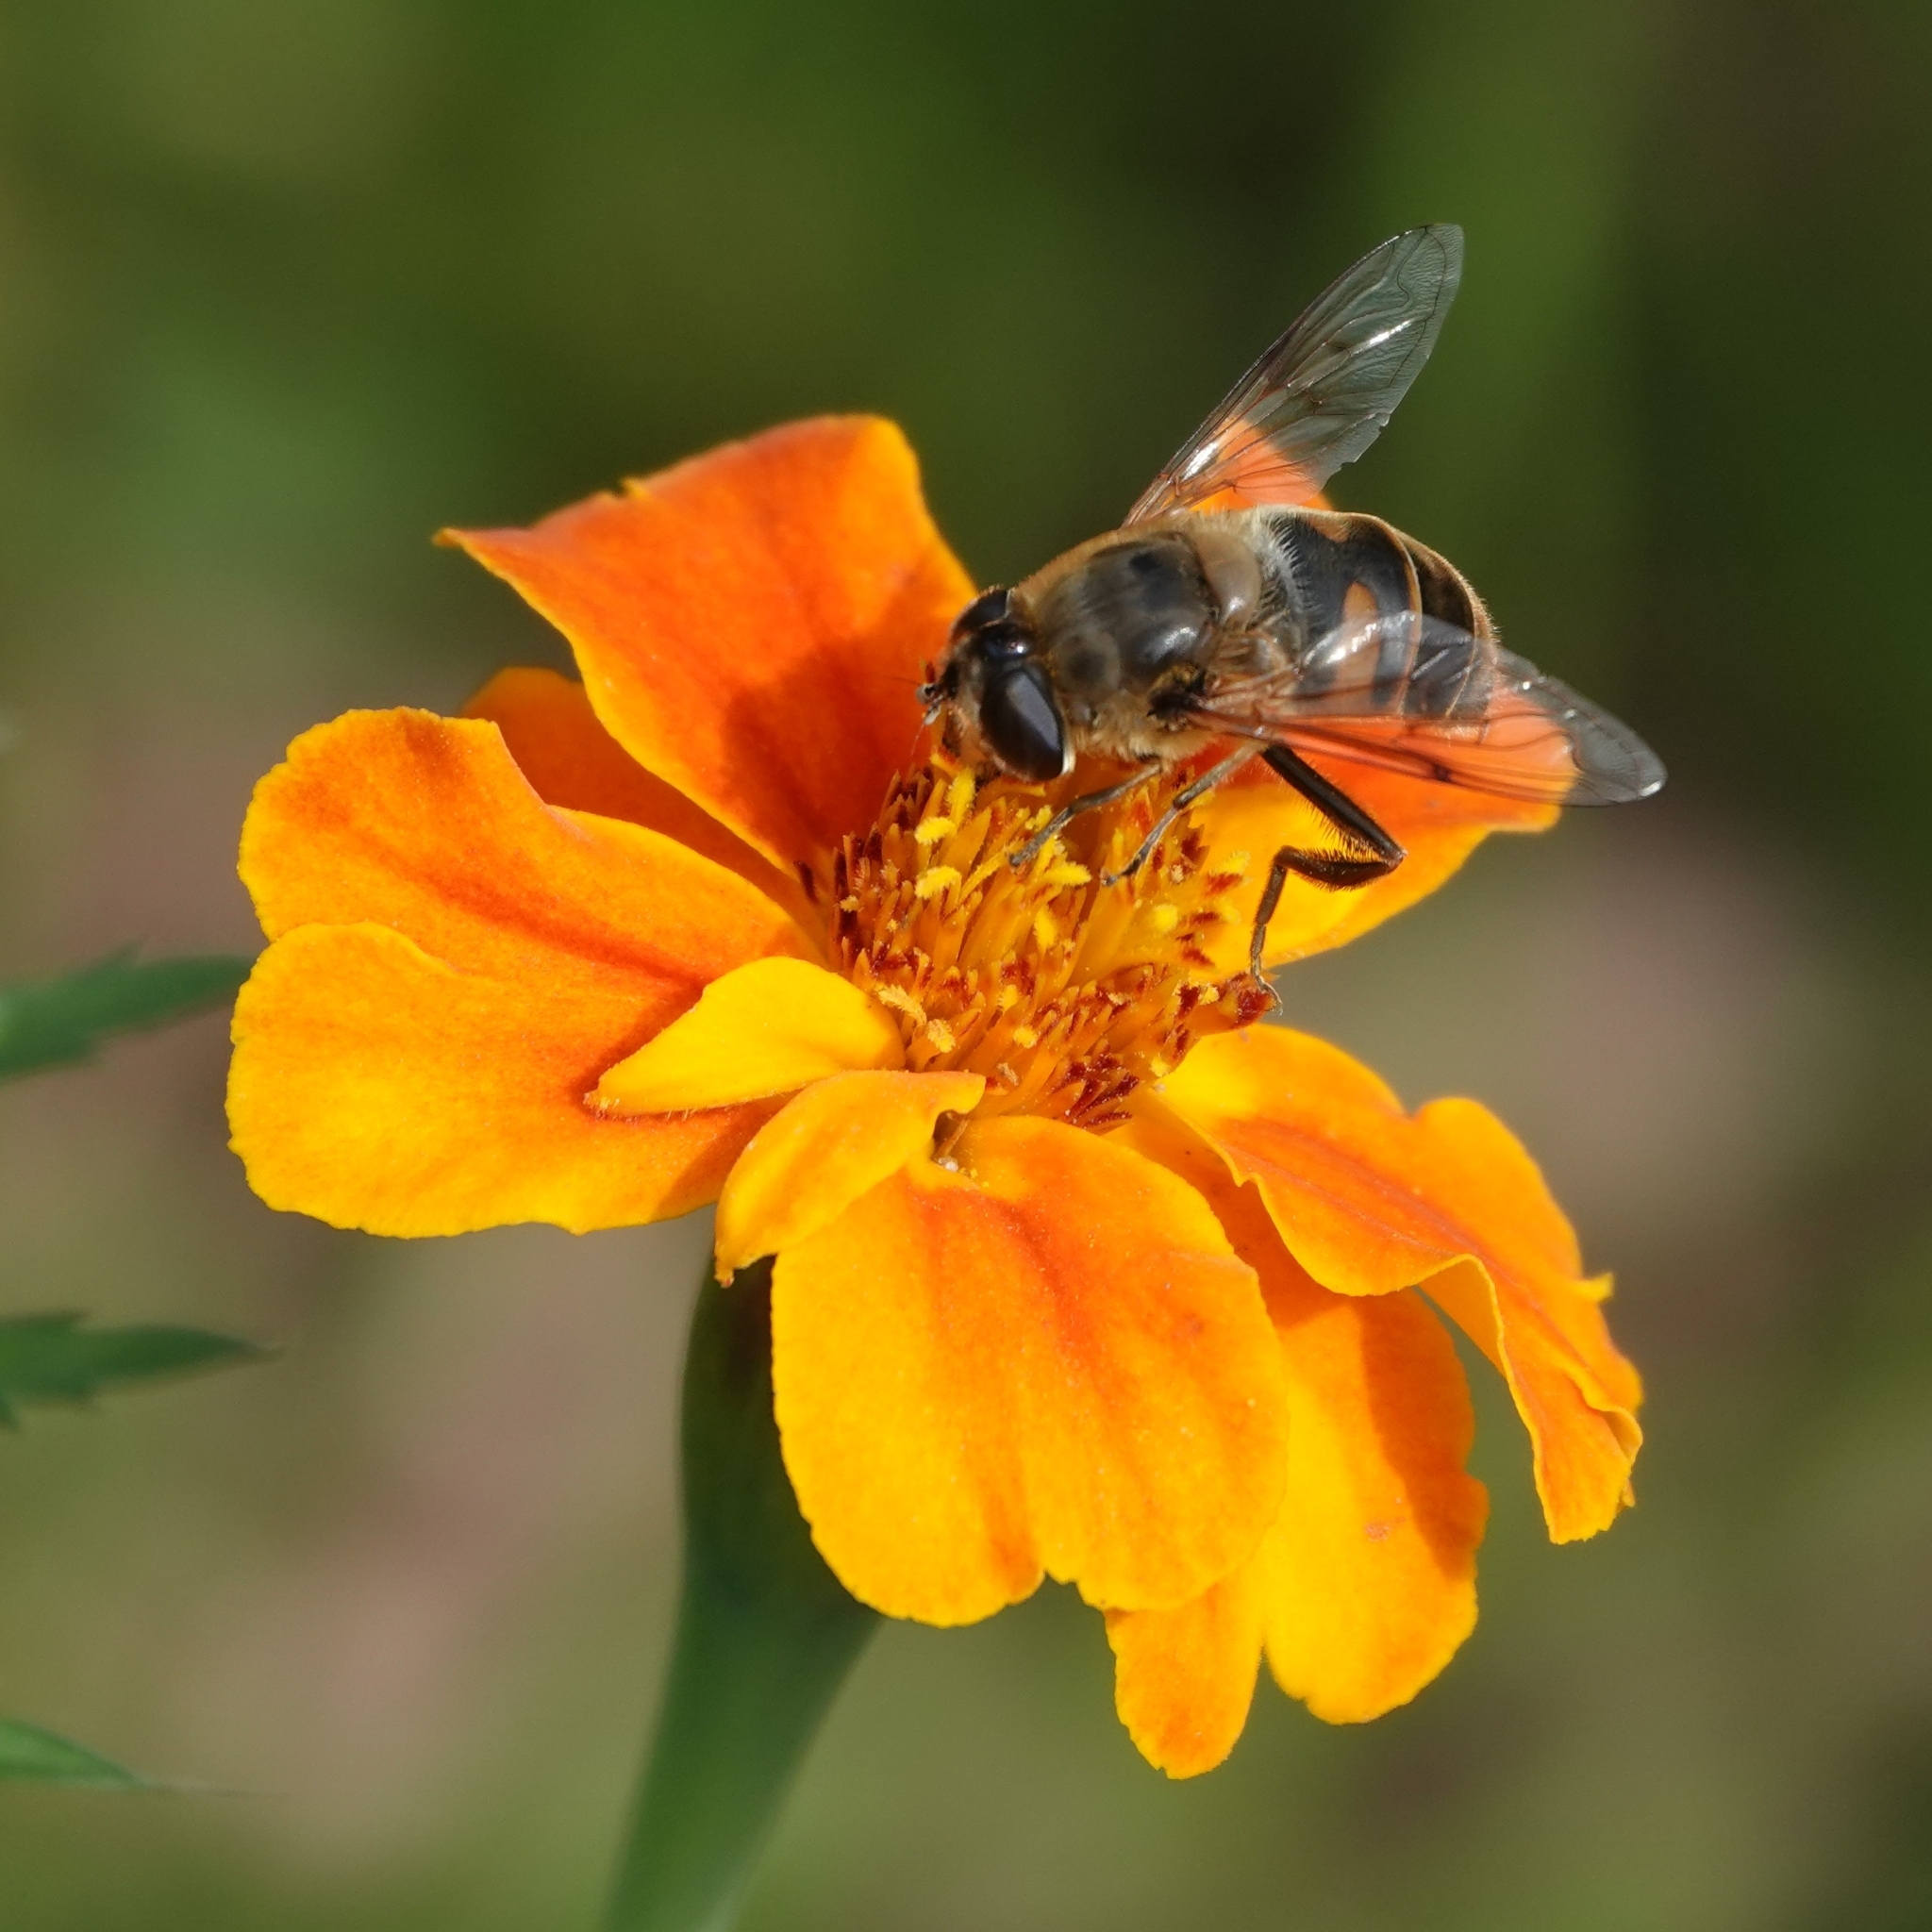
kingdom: Animalia
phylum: Arthropoda
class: Insecta
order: Diptera
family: Syrphidae
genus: Eristalis
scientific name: Eristalis tenax
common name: Drone fly
